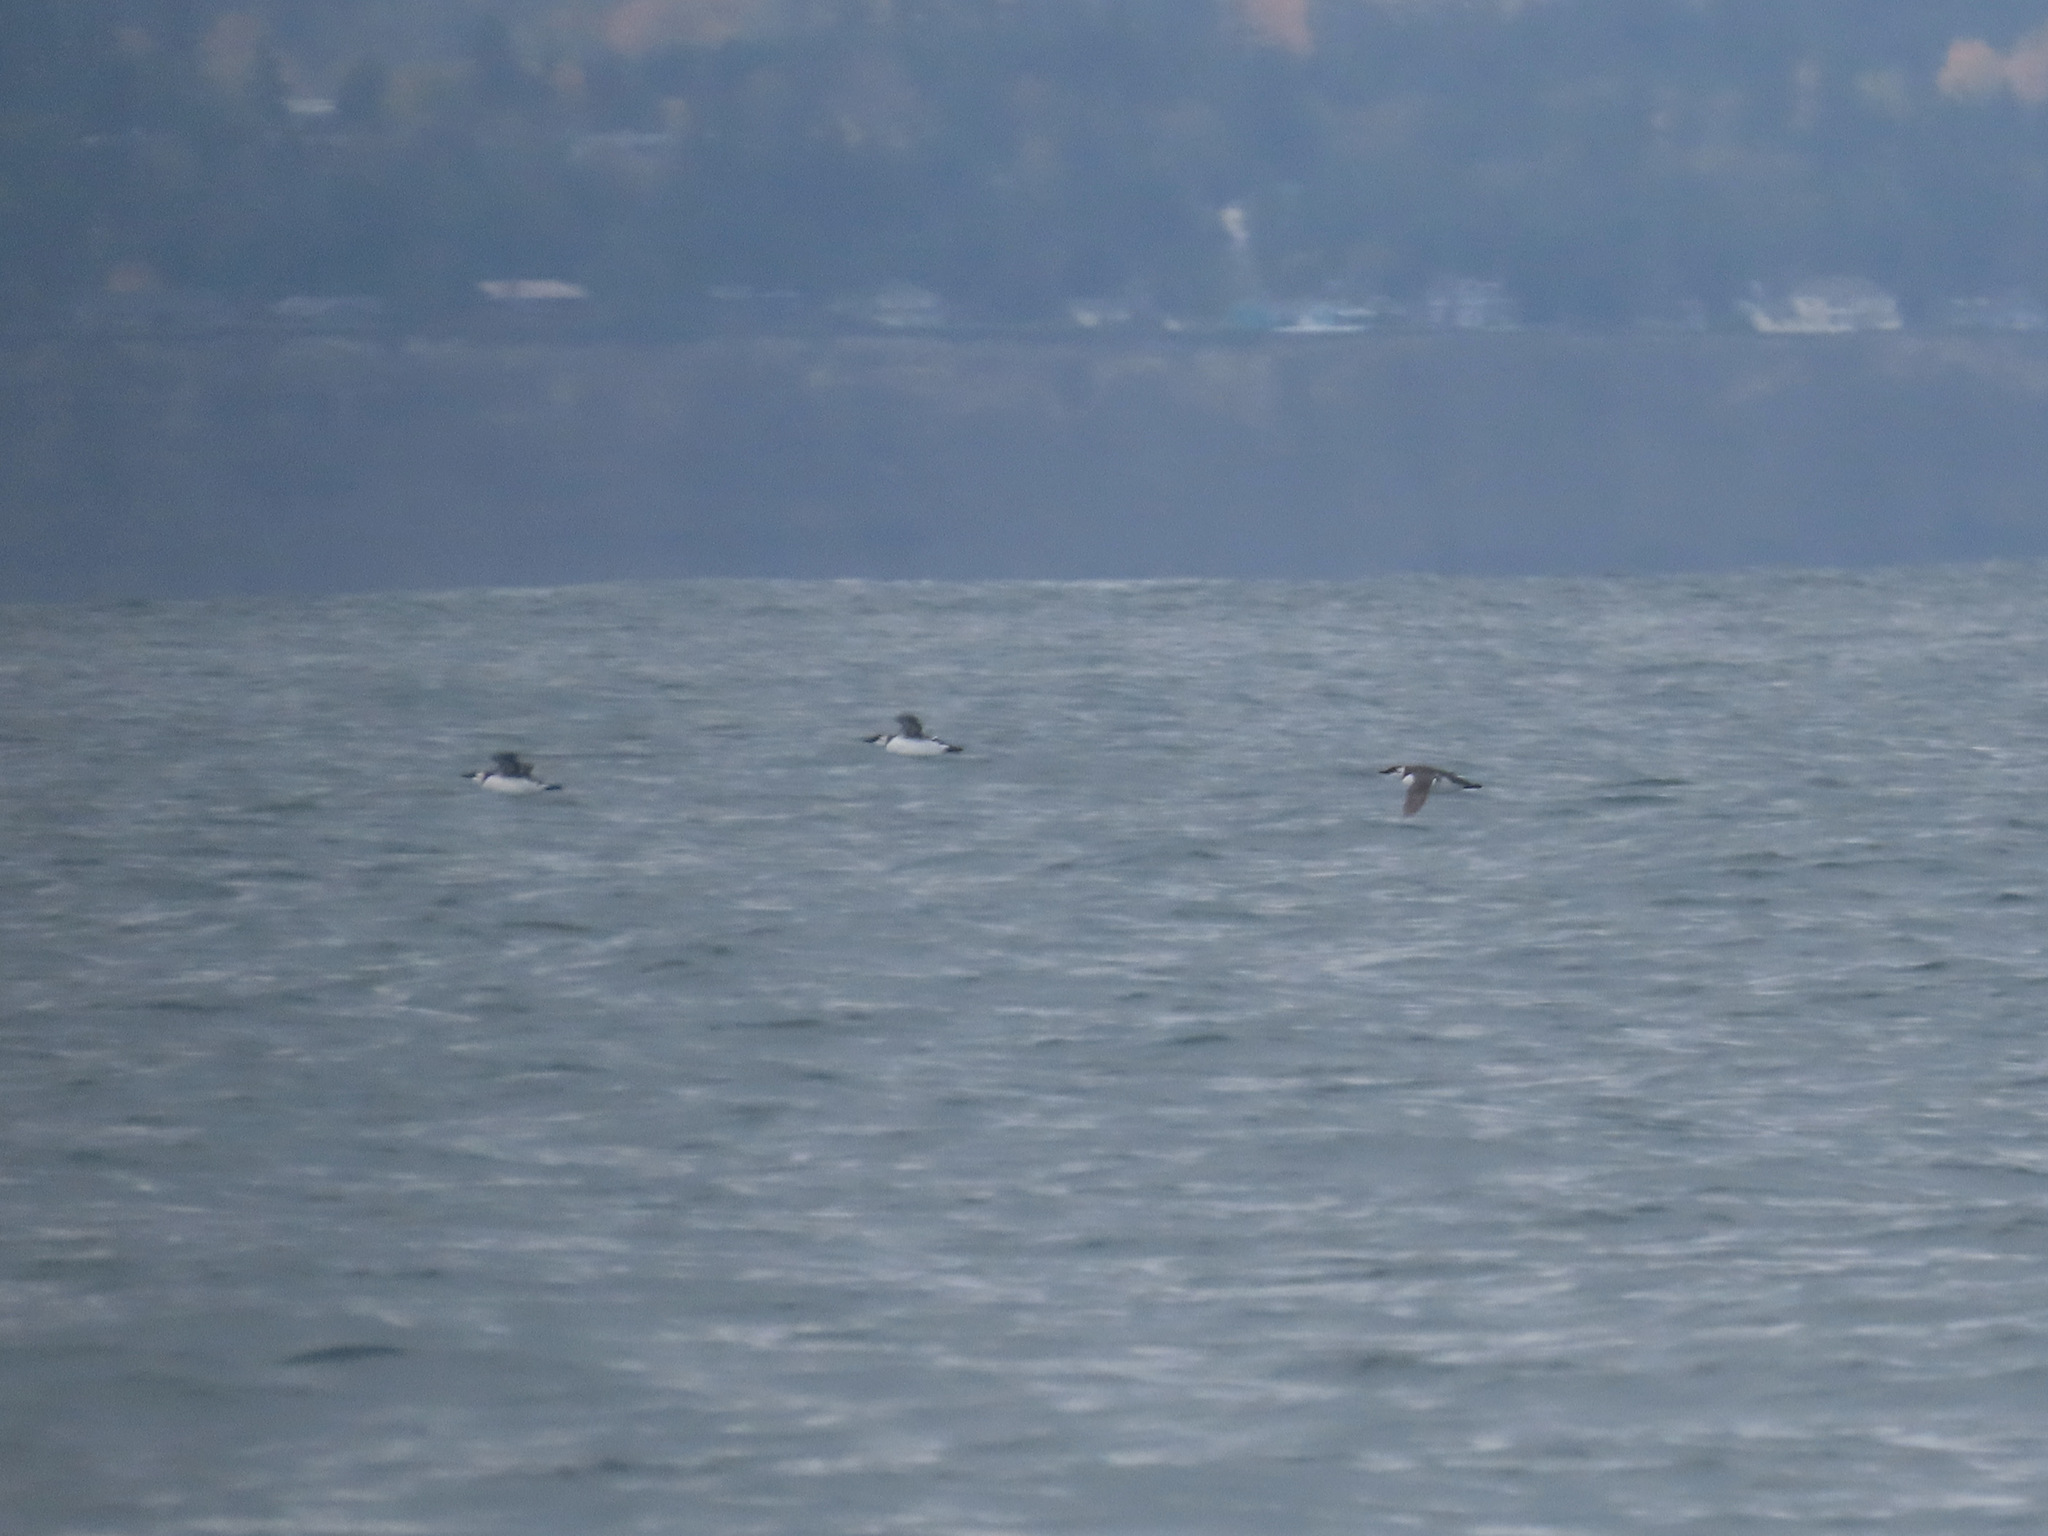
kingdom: Animalia
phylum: Chordata
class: Aves
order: Charadriiformes
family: Alcidae
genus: Uria
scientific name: Uria aalge
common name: Common murre
